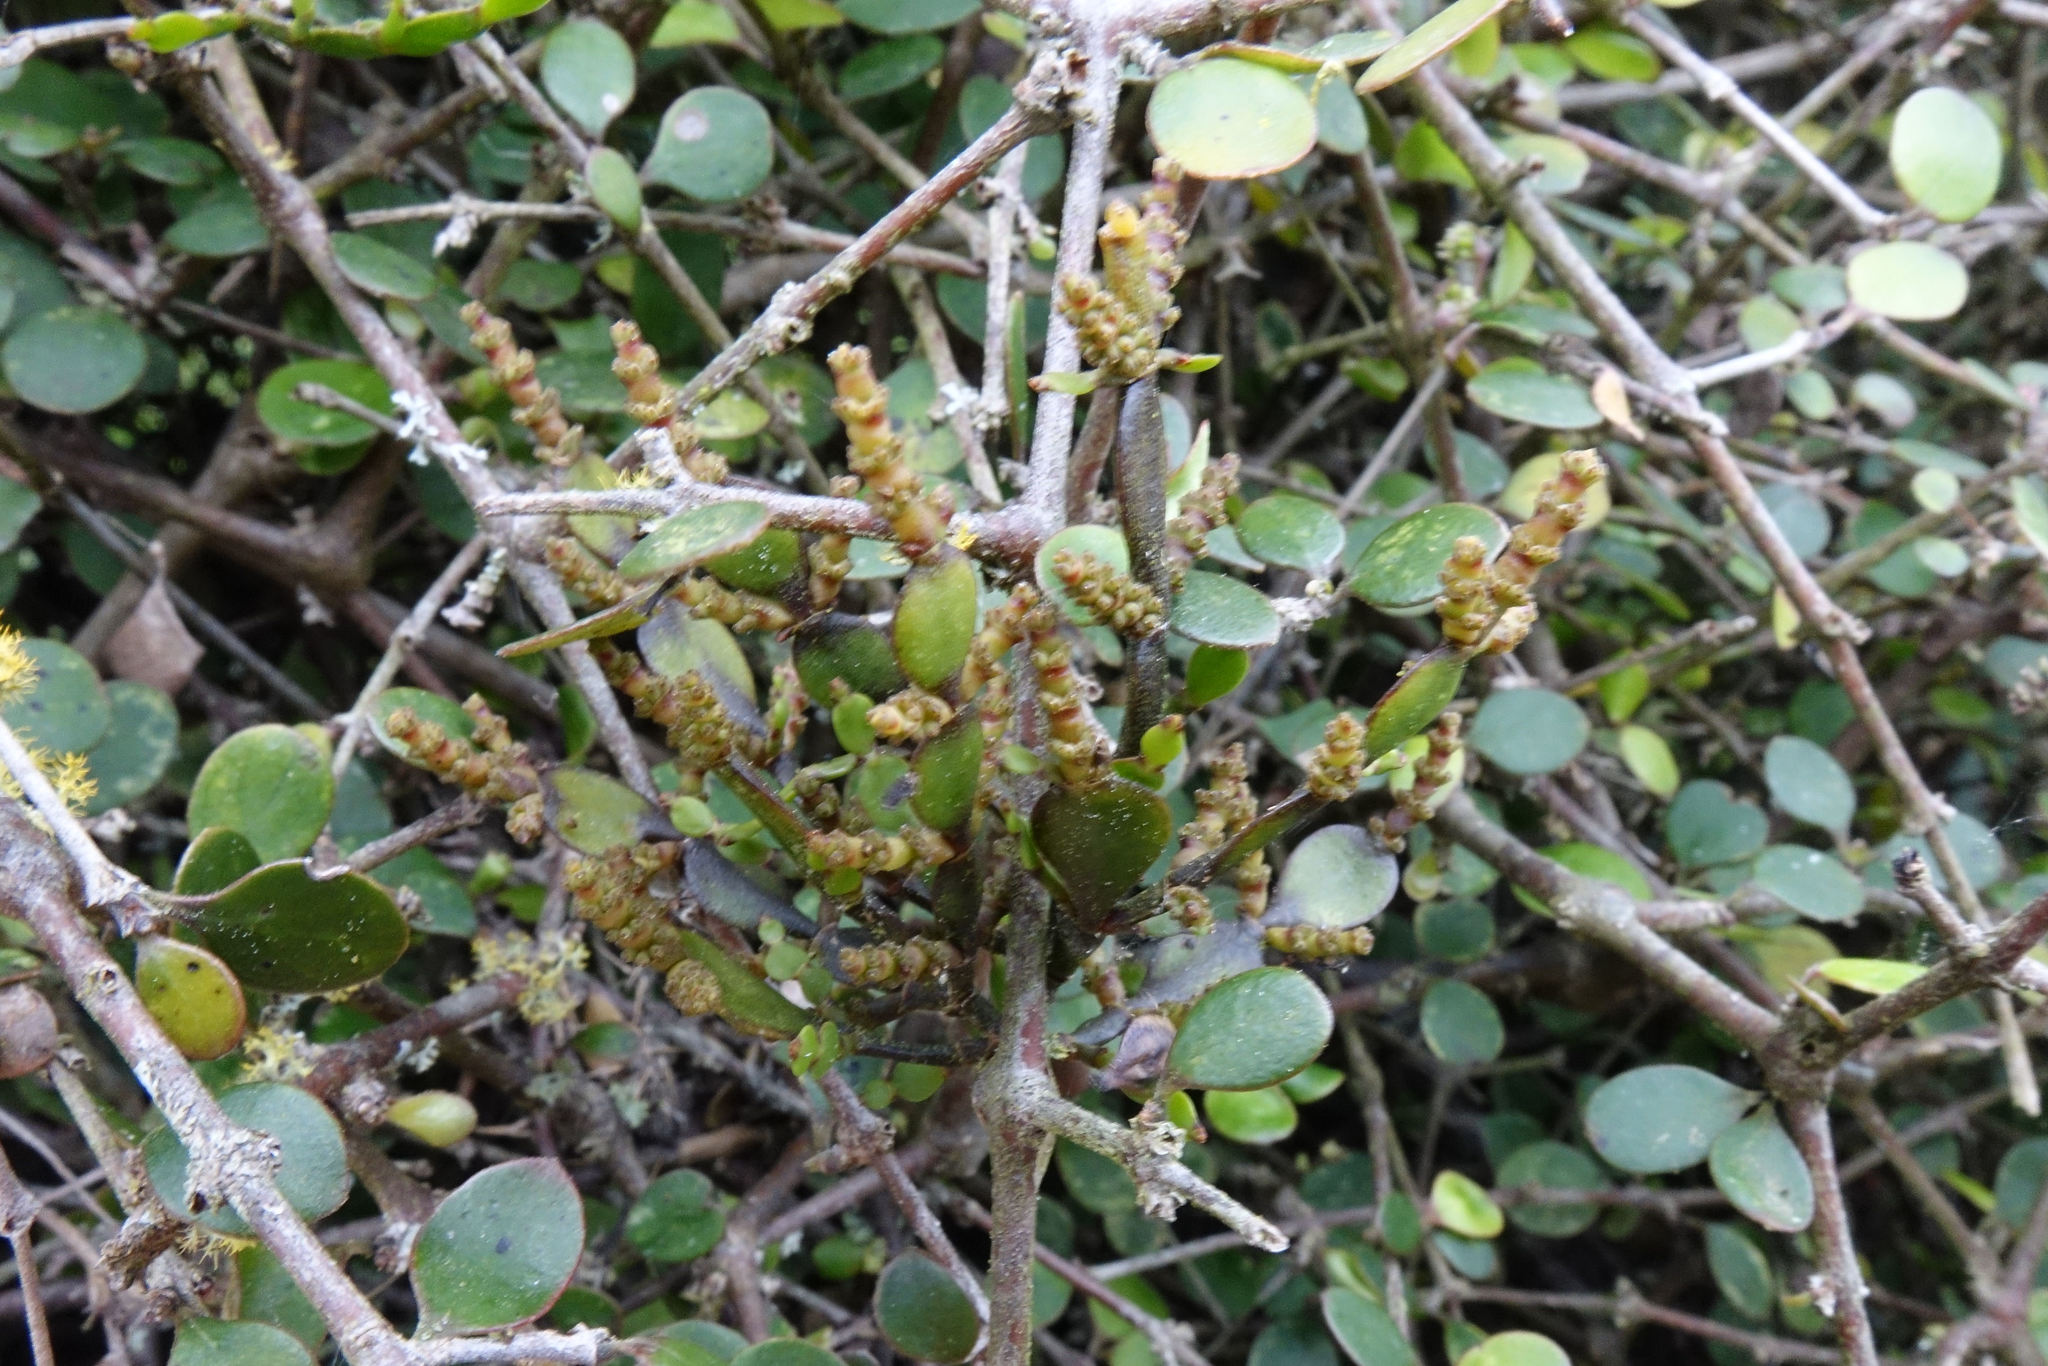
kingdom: Plantae
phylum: Tracheophyta
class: Magnoliopsida
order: Santalales
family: Viscaceae
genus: Korthalsella
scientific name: Korthalsella lindsayi
